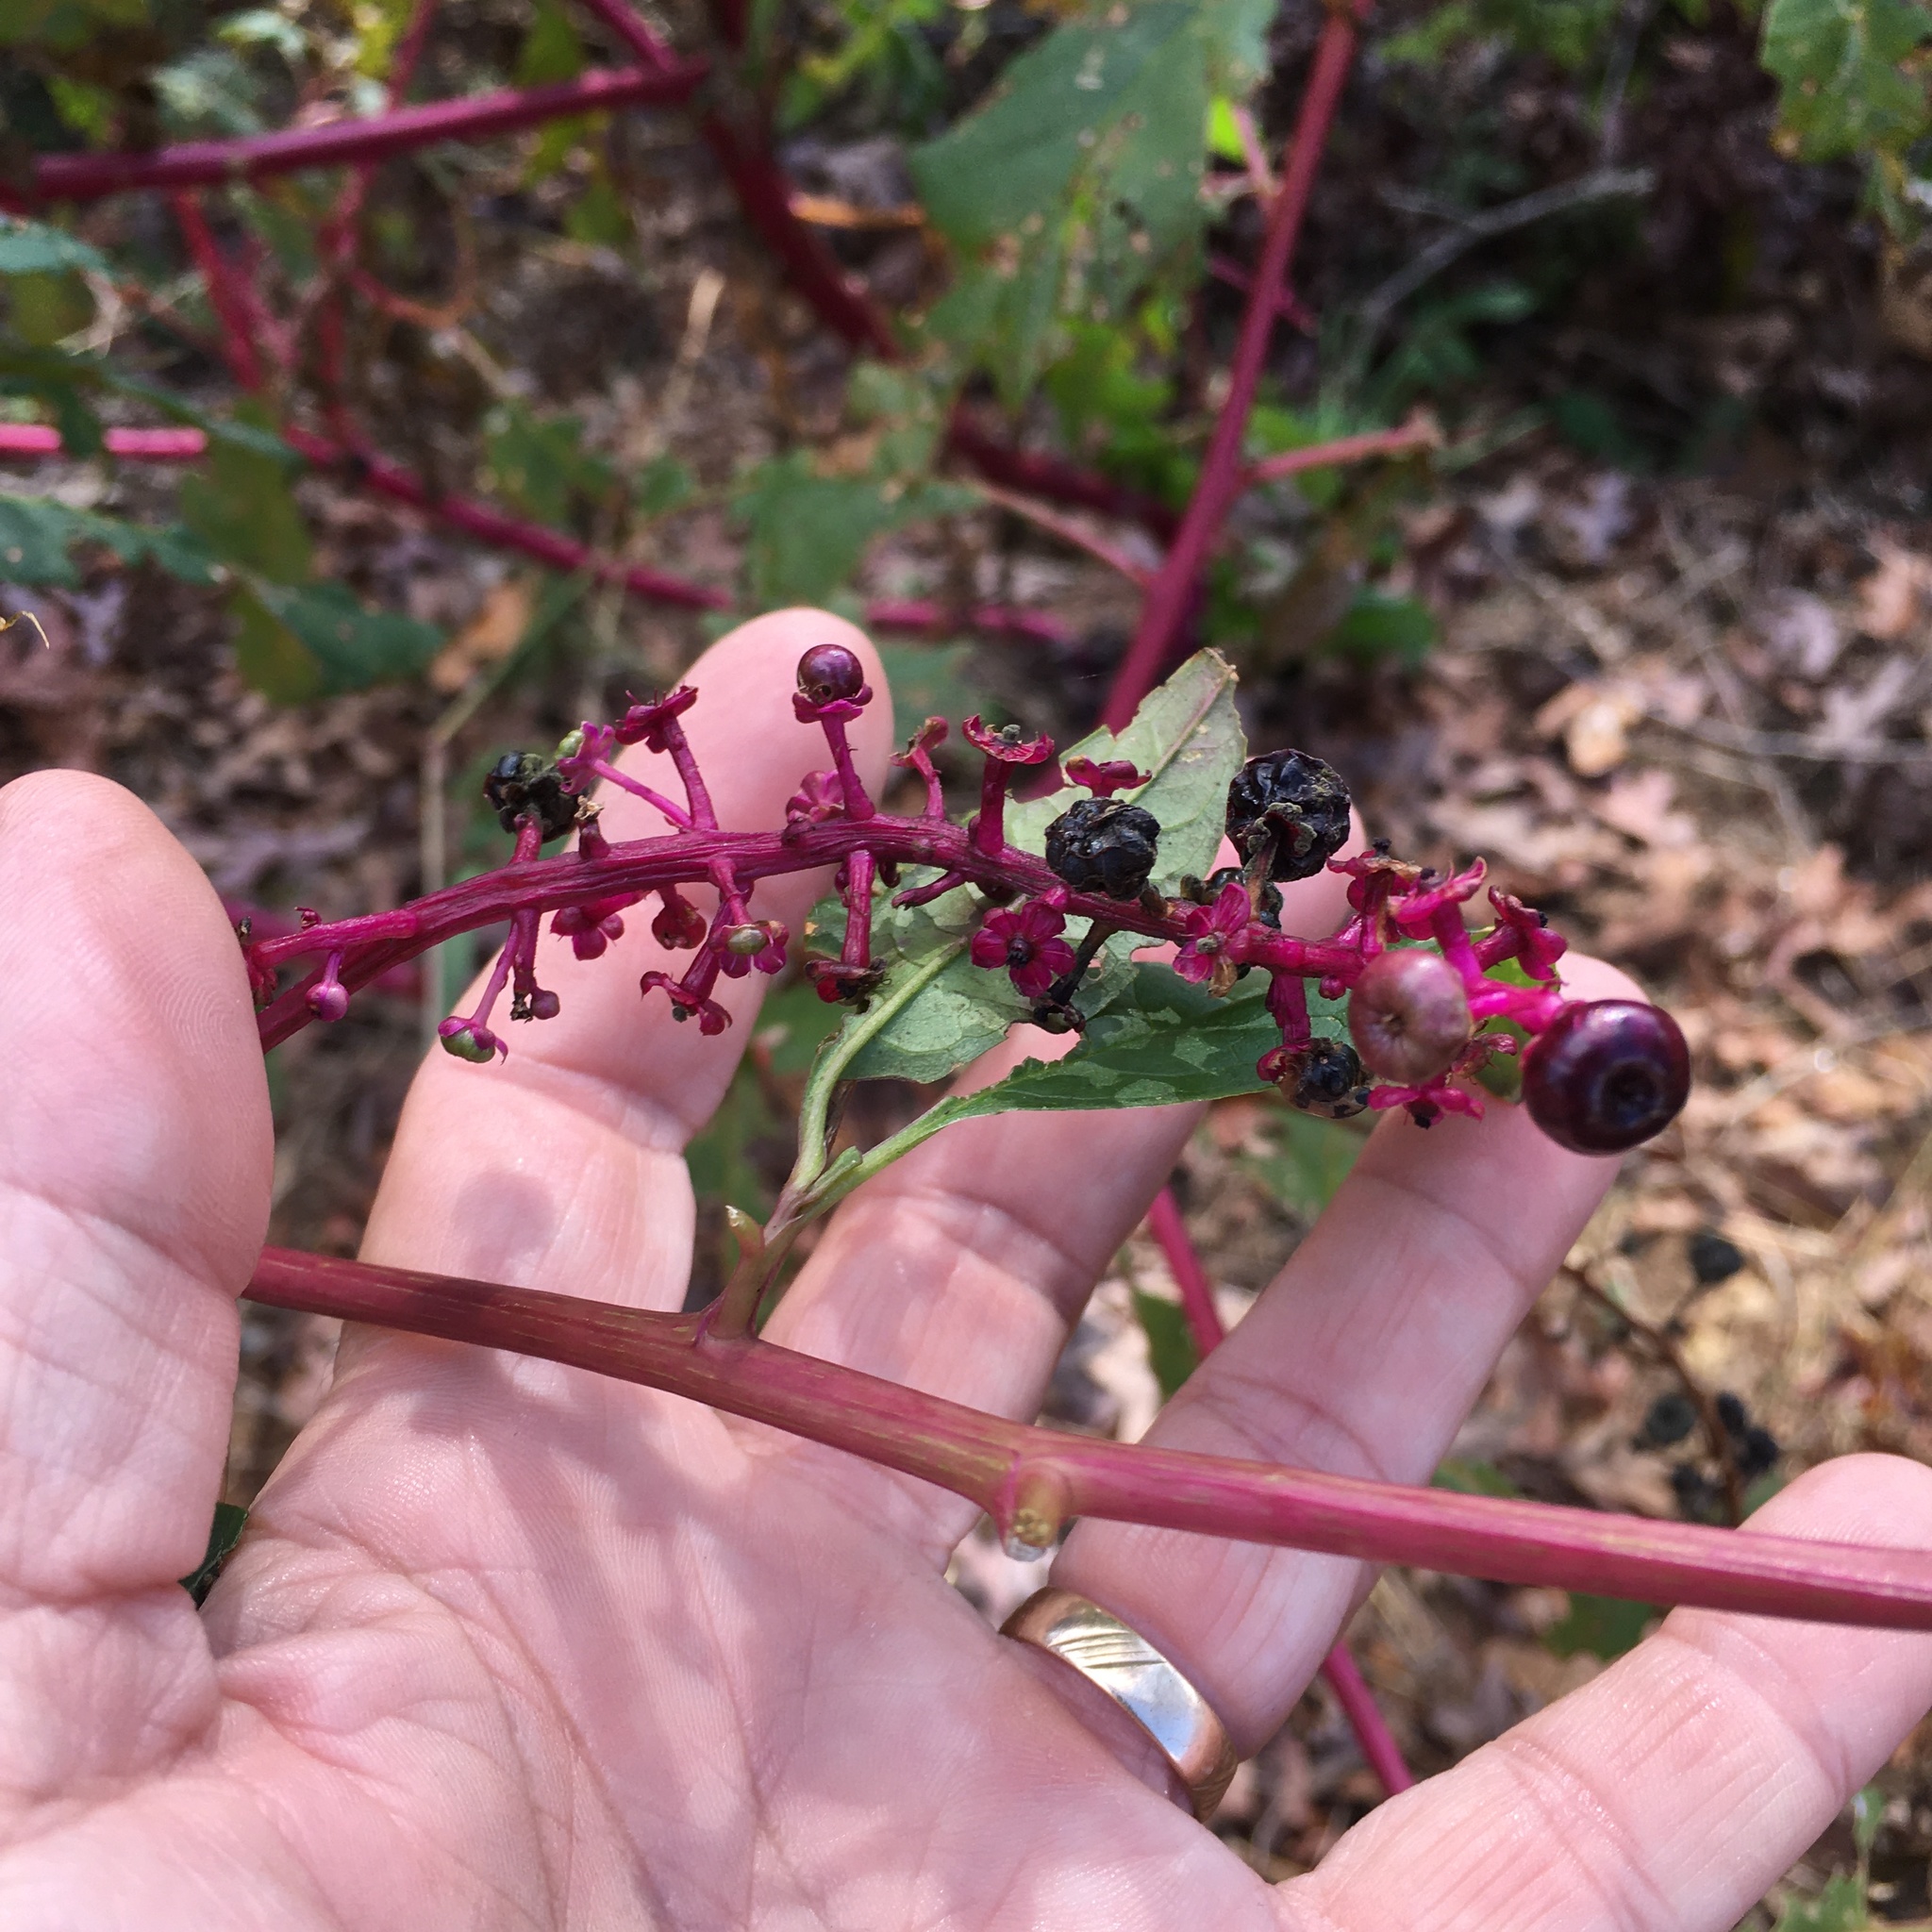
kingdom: Plantae
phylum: Tracheophyta
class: Magnoliopsida
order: Caryophyllales
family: Phytolaccaceae
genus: Phytolacca
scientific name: Phytolacca americana
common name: American pokeweed
